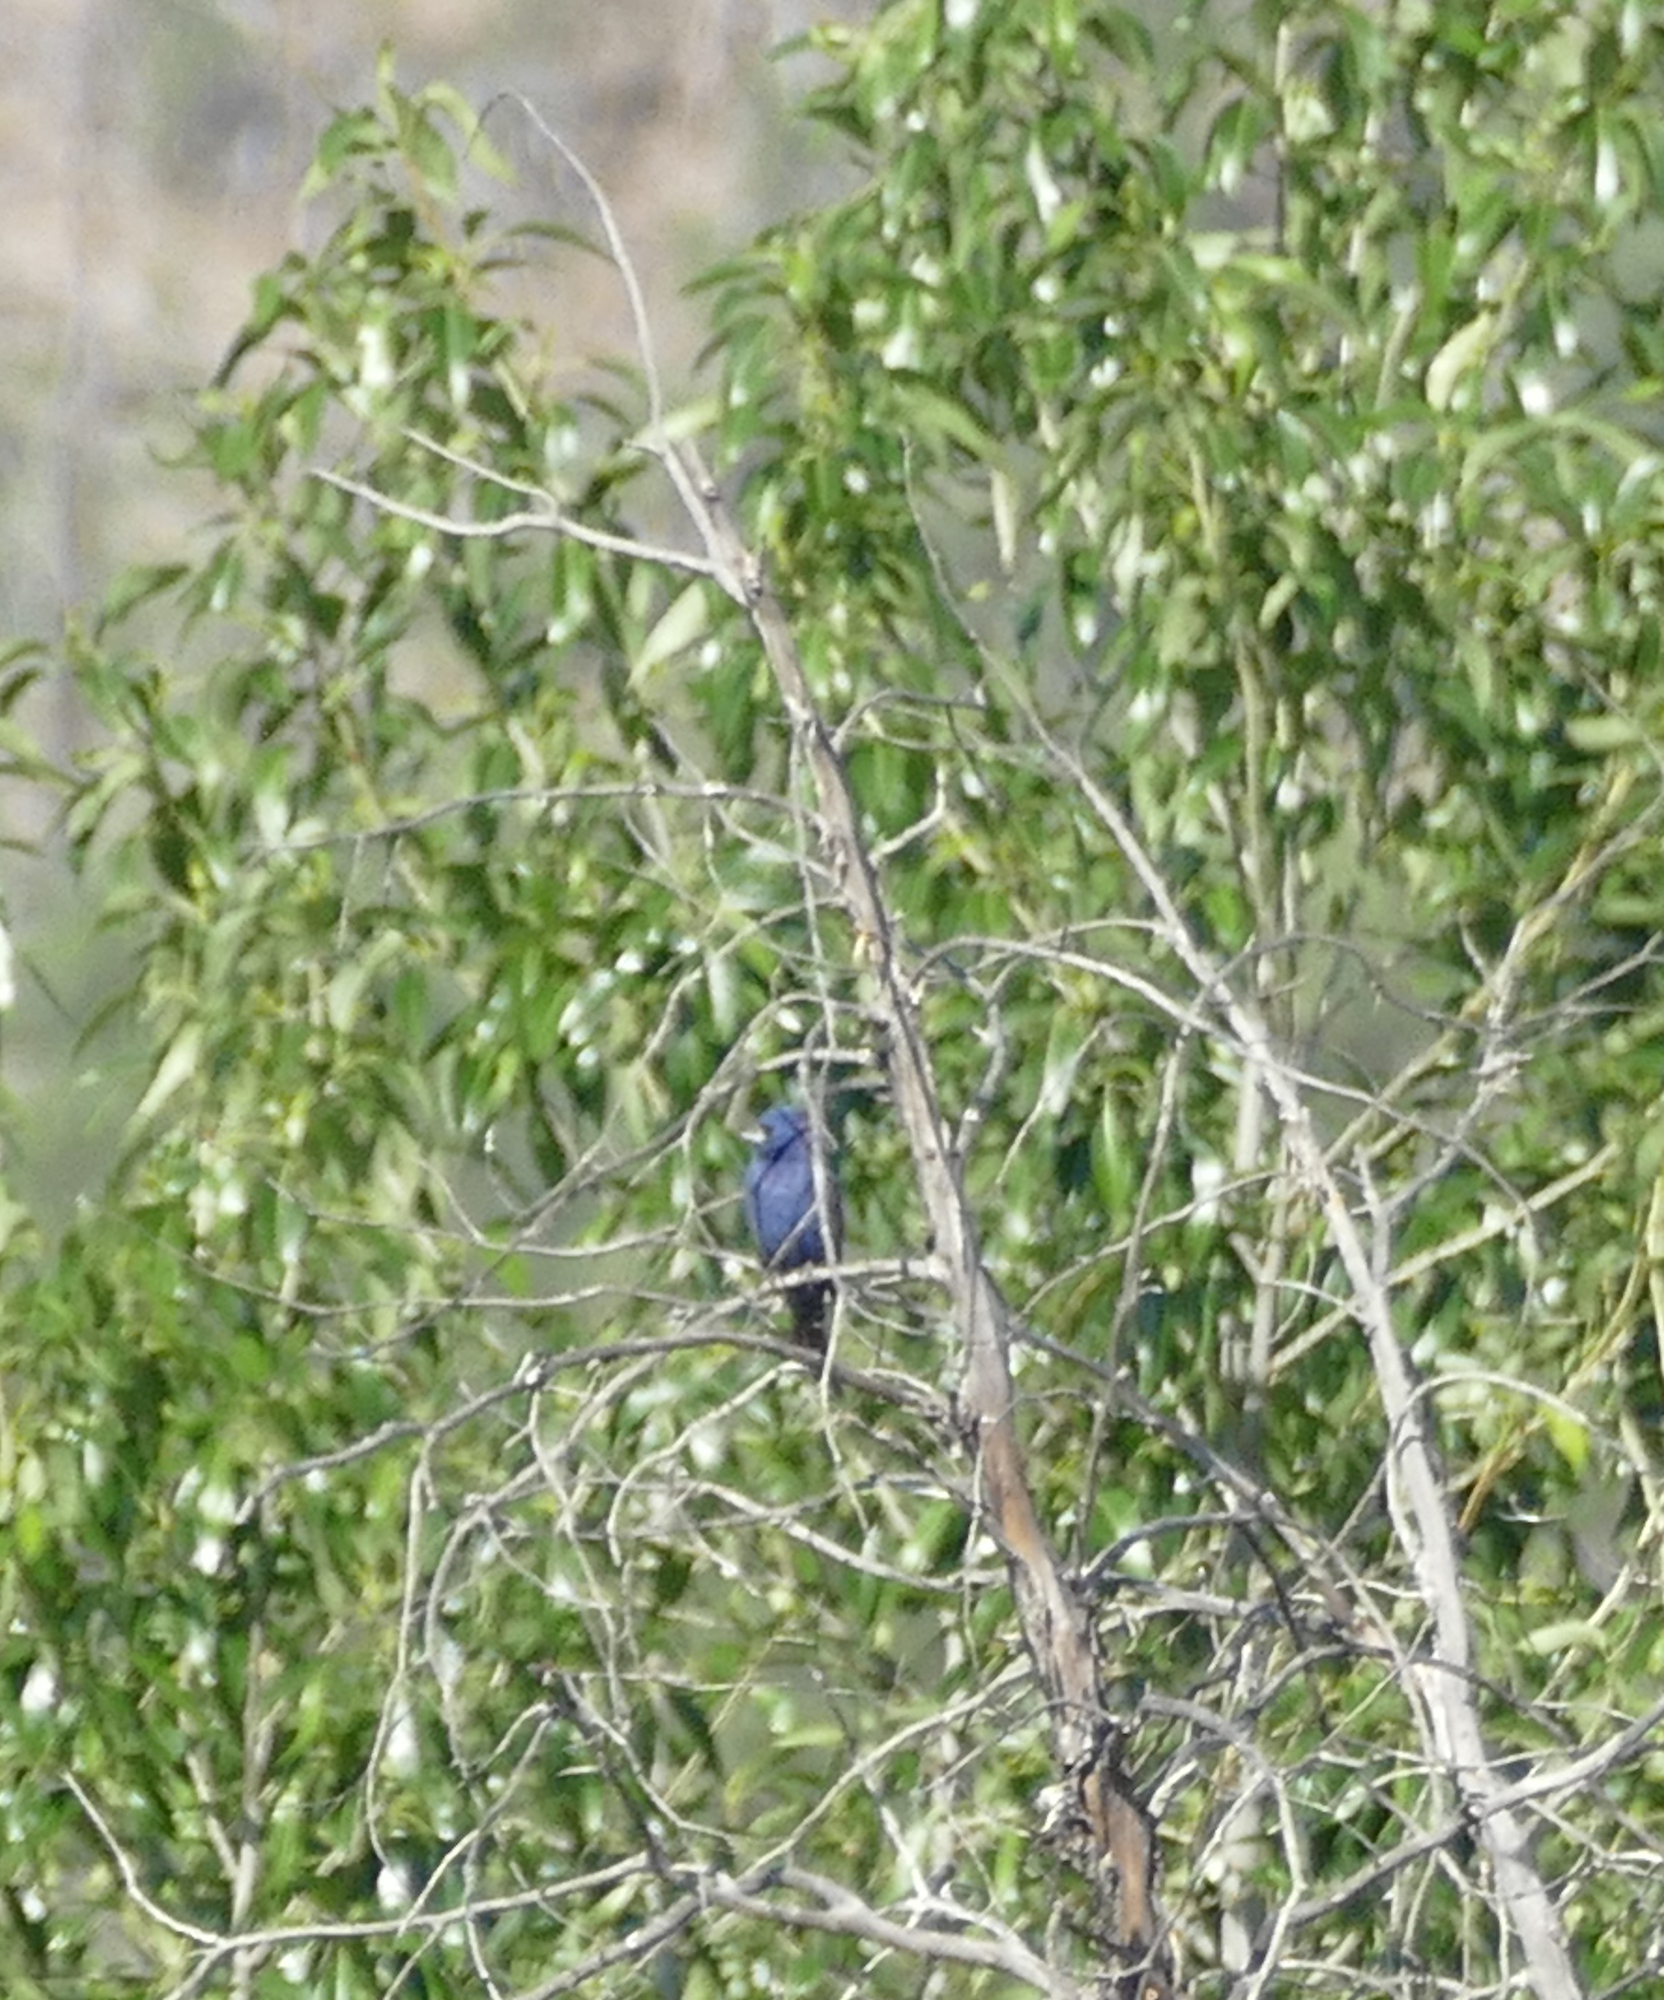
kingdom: Animalia
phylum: Chordata
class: Aves
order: Passeriformes
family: Cardinalidae
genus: Passerina
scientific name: Passerina caerulea
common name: Blue grosbeak
